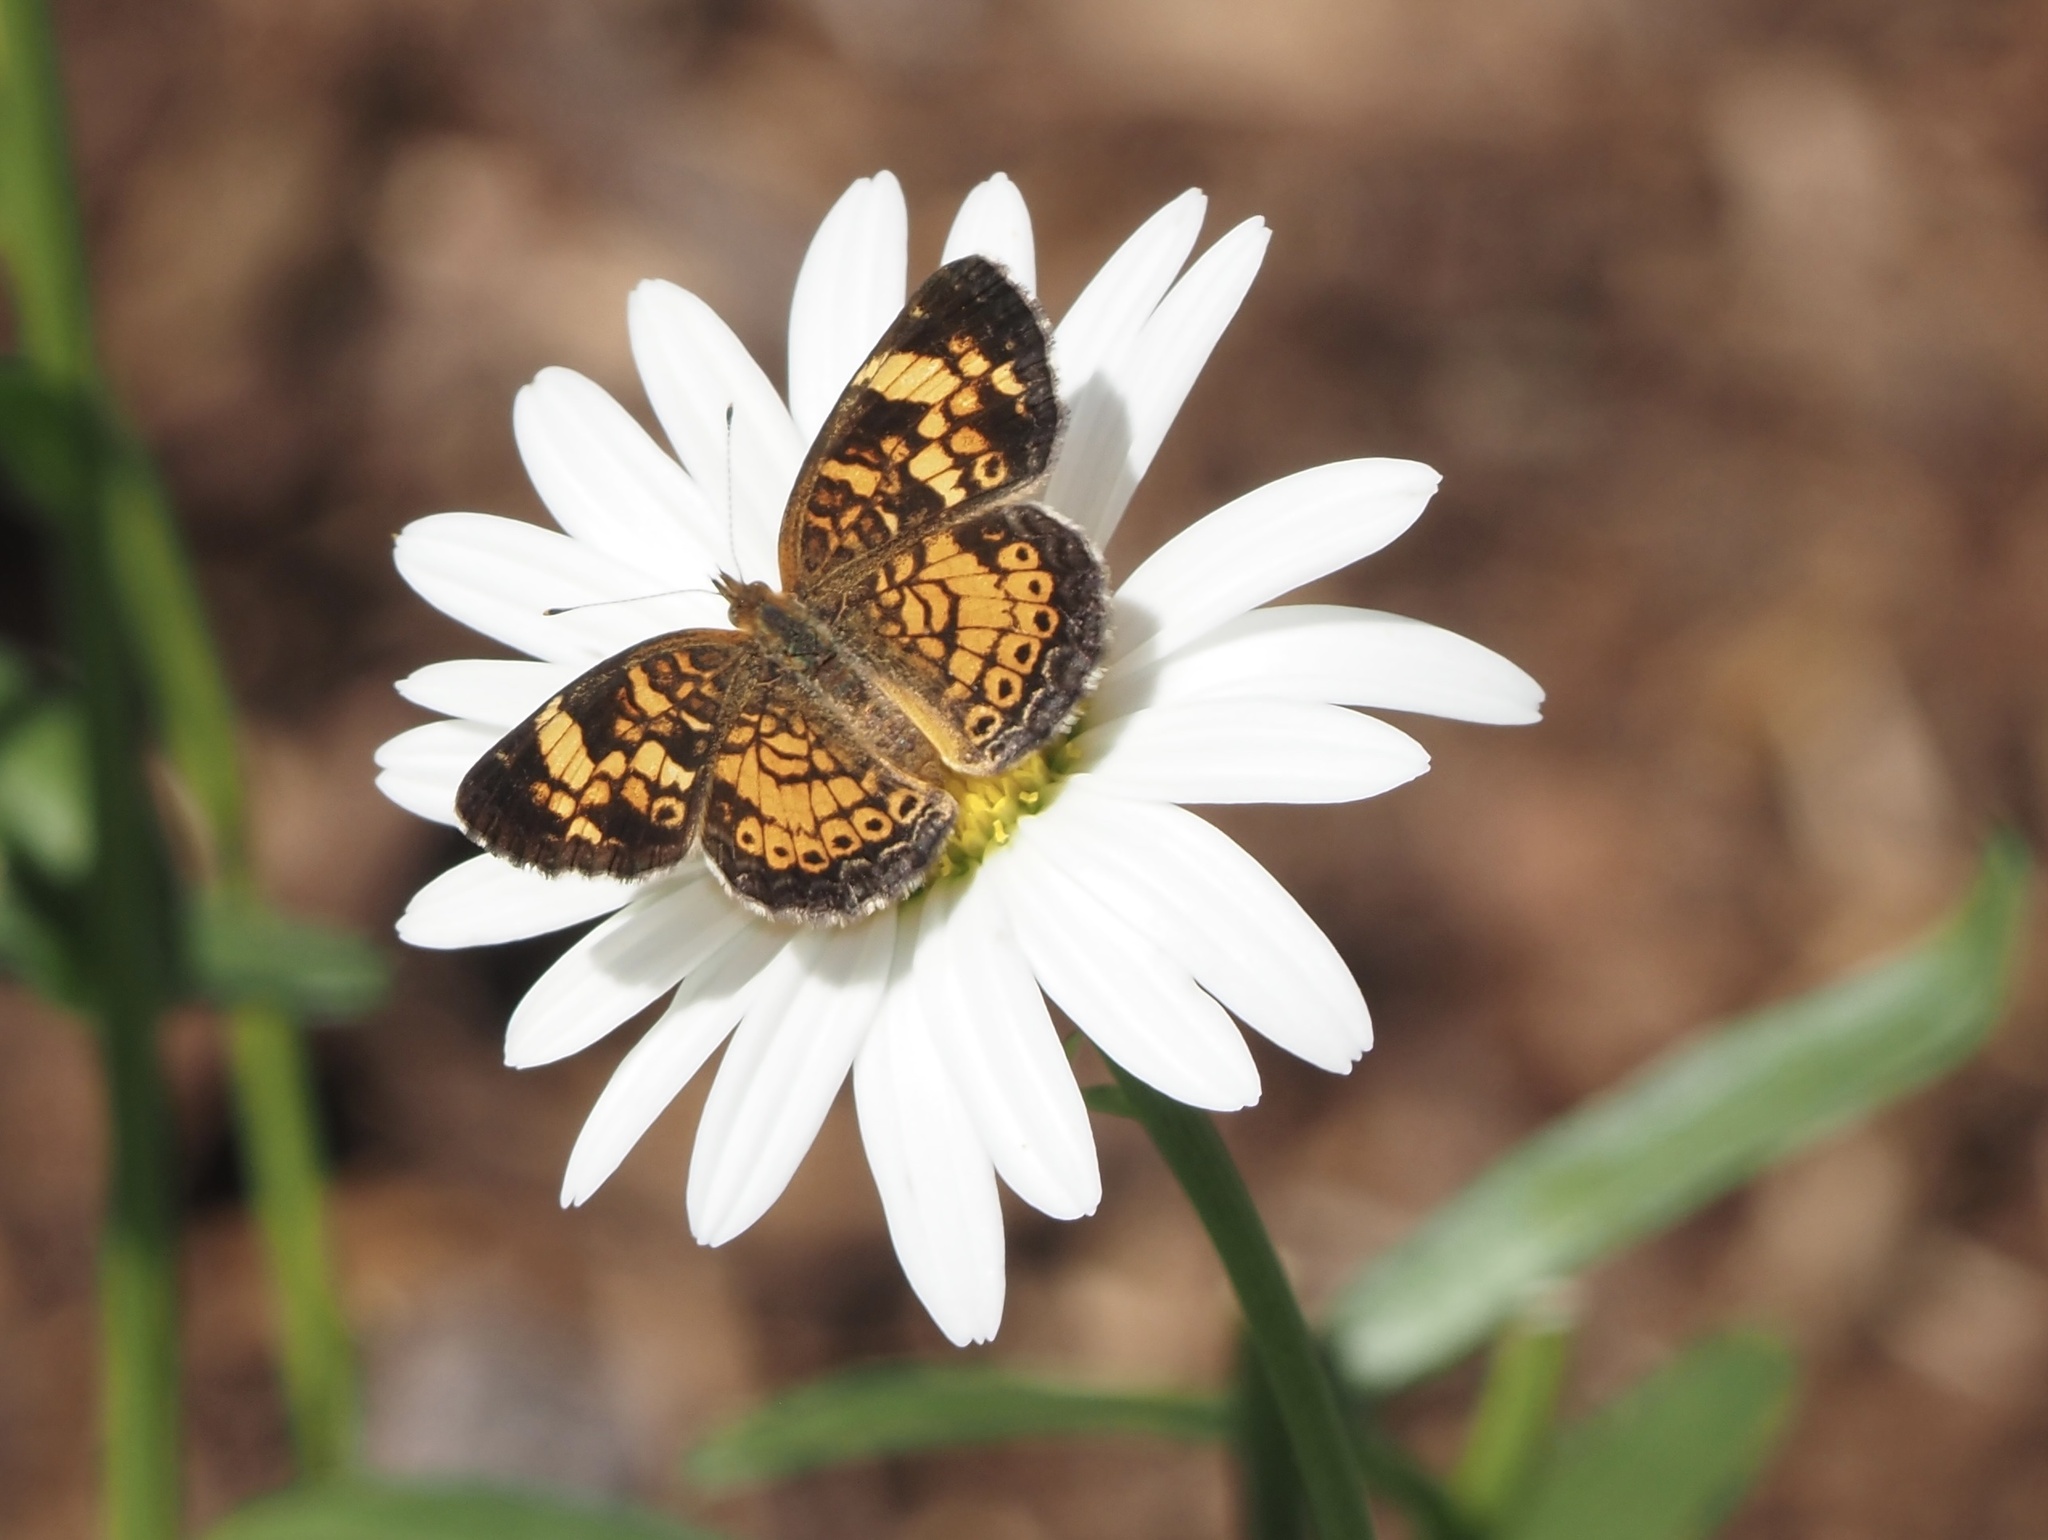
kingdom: Animalia
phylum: Arthropoda
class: Insecta
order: Lepidoptera
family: Nymphalidae
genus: Phyciodes
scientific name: Phyciodes tharos
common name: Pearl crescent
